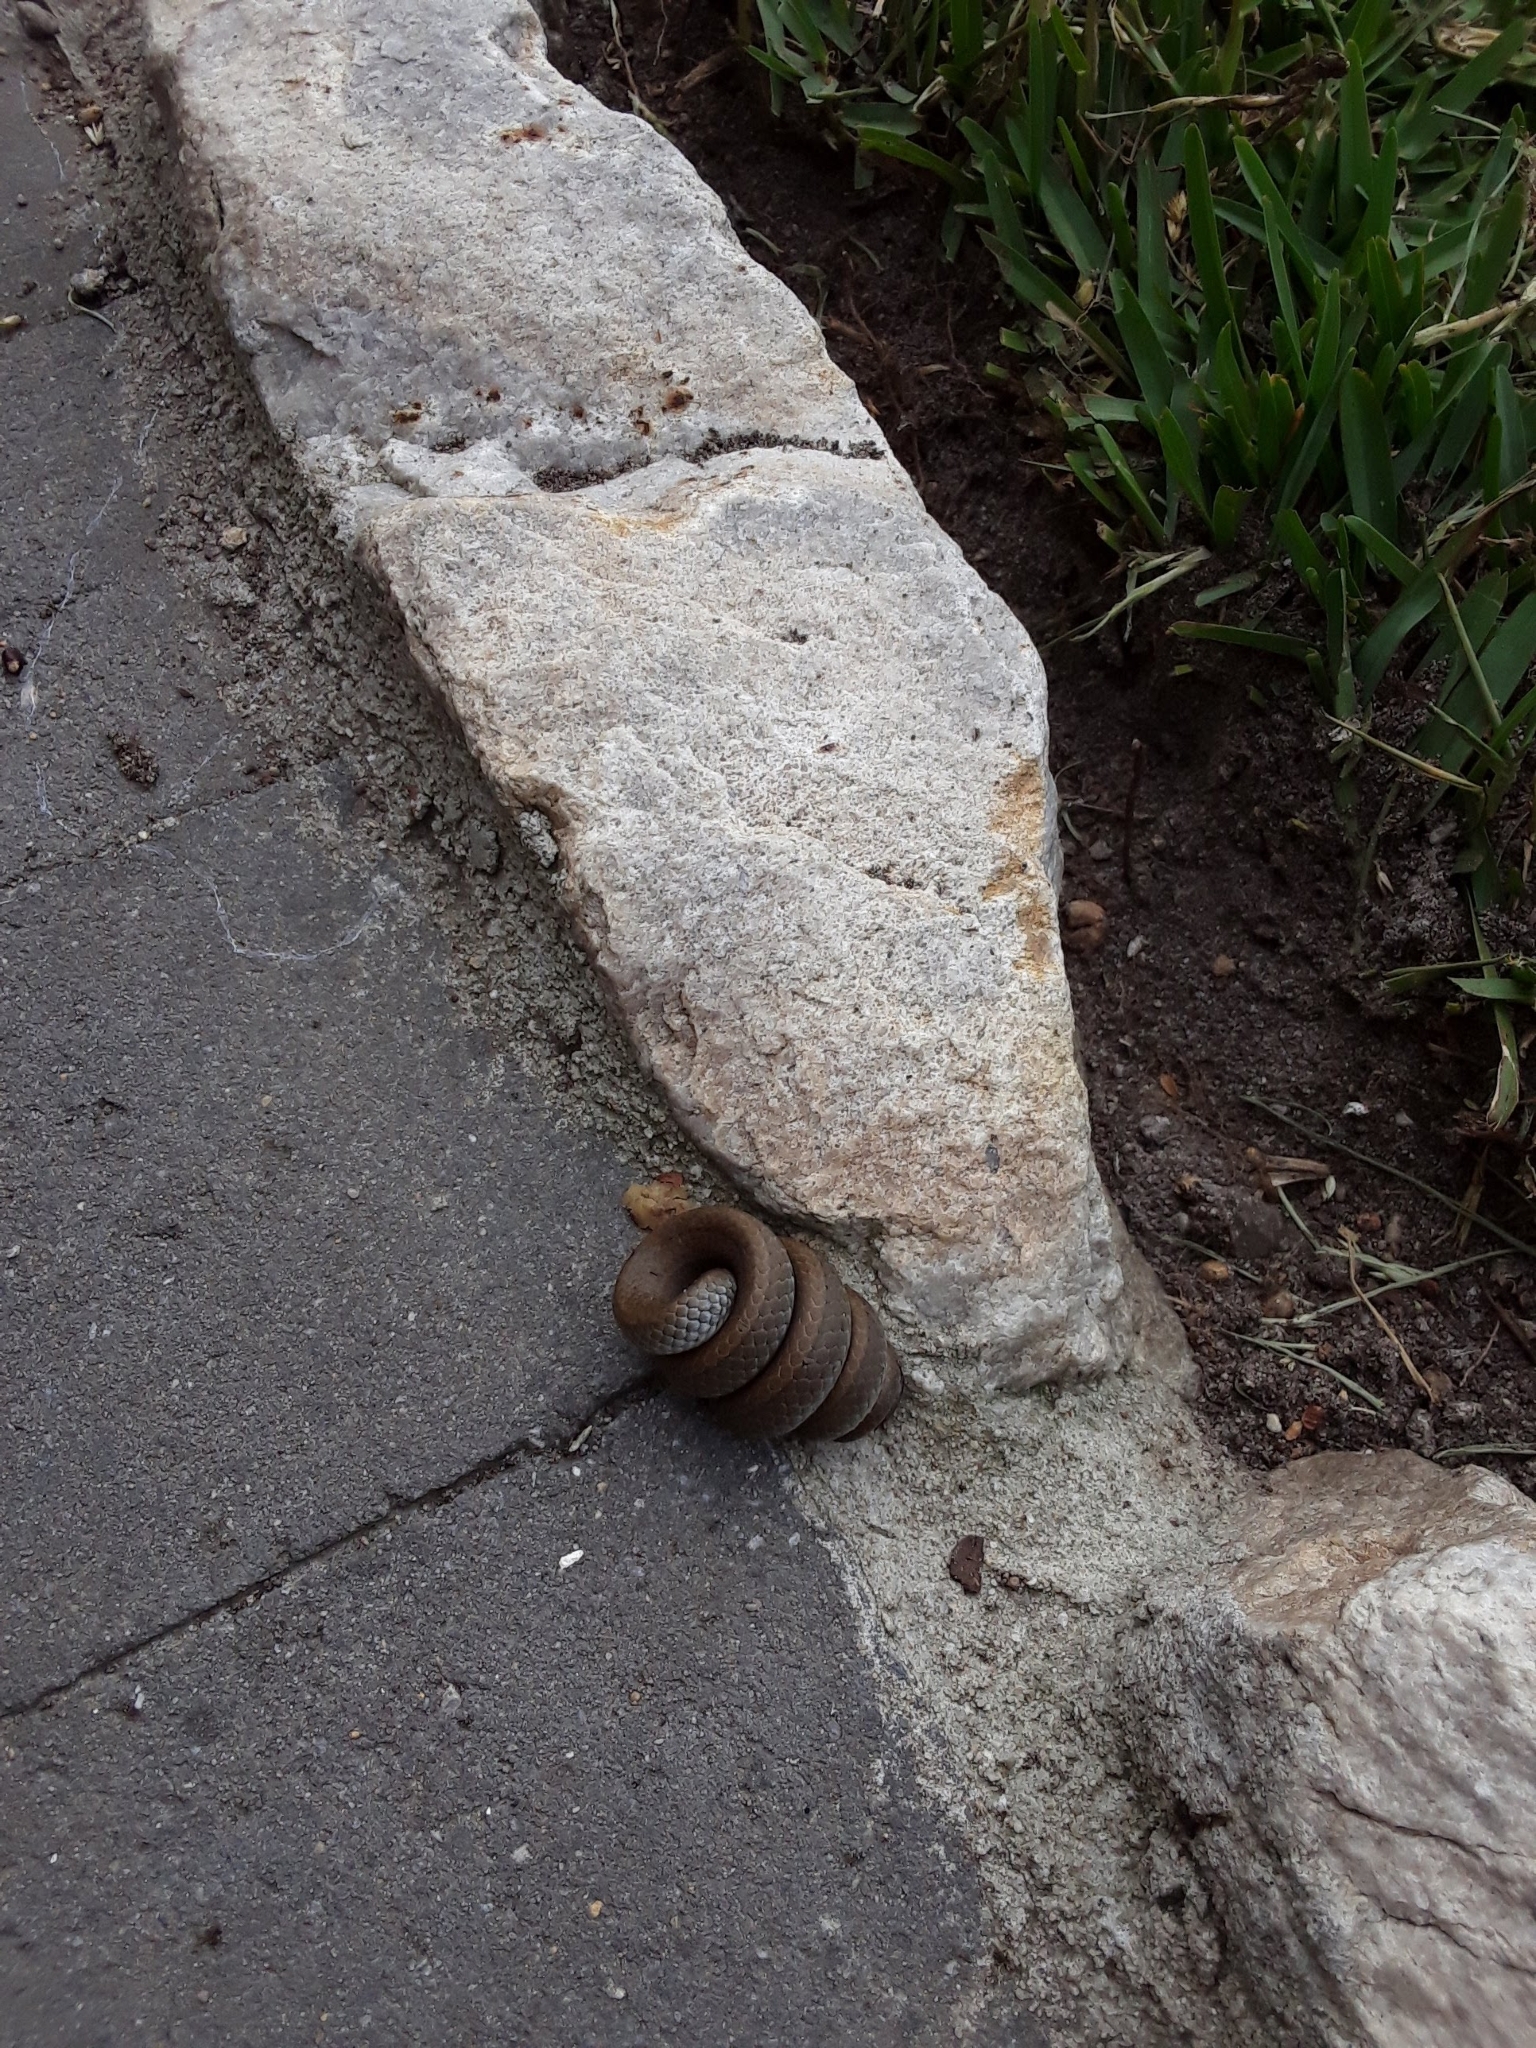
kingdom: Animalia
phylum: Chordata
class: Squamata
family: Pseudoxyrhophiidae
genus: Duberria
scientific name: Duberria lutrix
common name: Common slug eater
